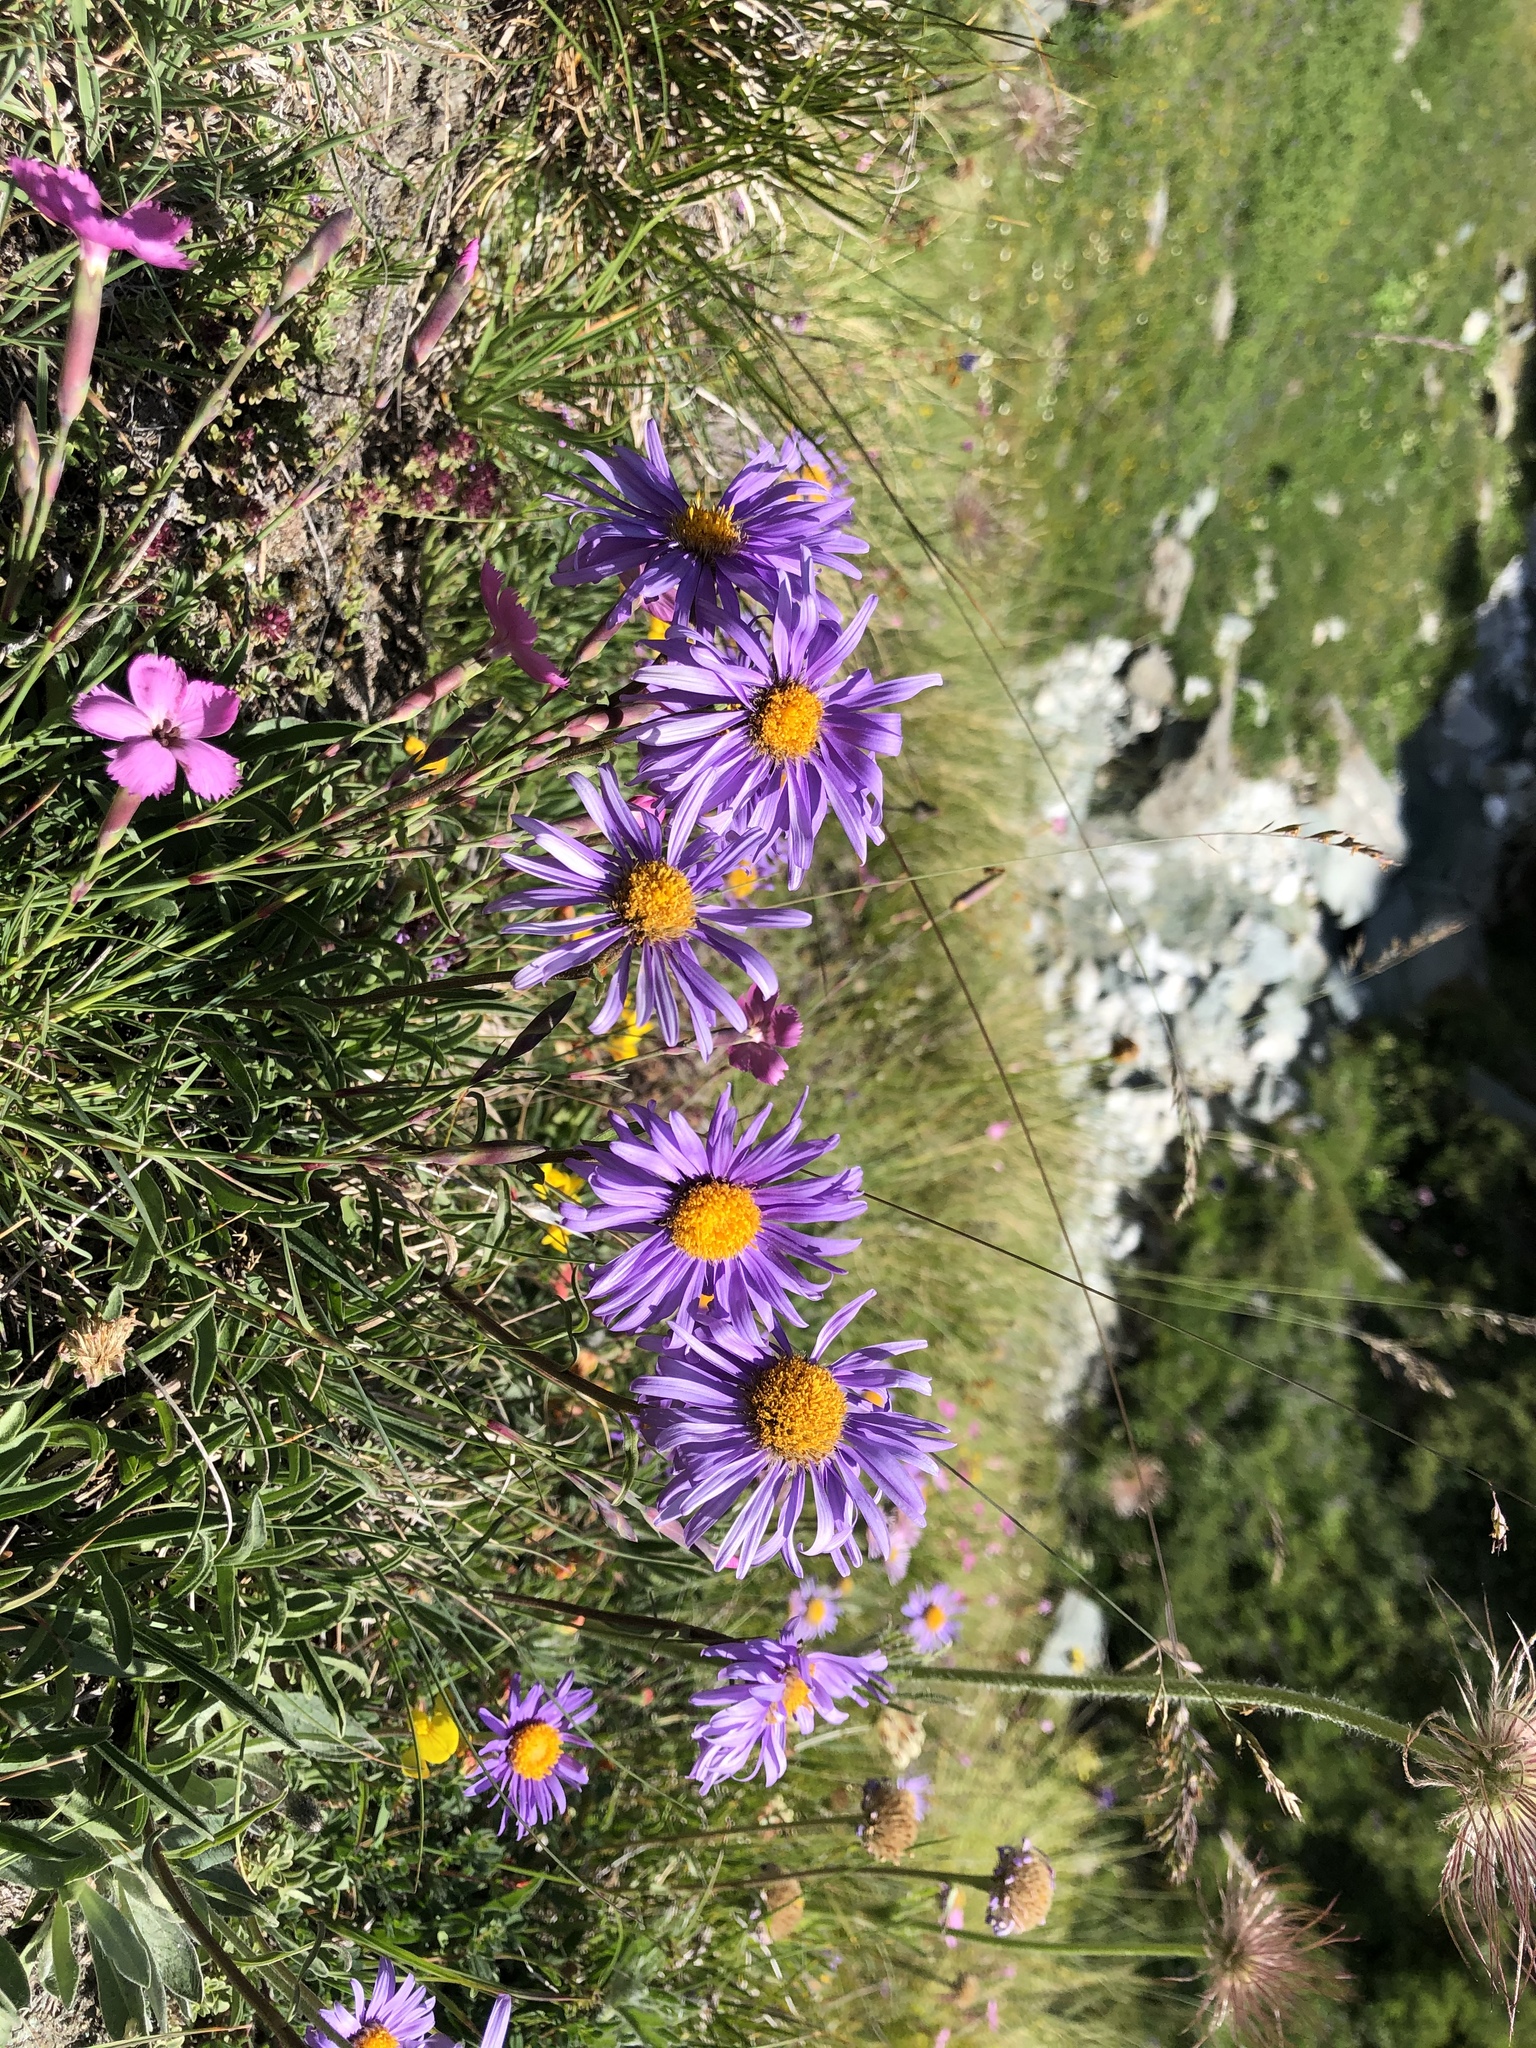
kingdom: Plantae
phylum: Tracheophyta
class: Magnoliopsida
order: Asterales
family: Asteraceae
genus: Aster
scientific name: Aster alpinus
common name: Alpine aster
